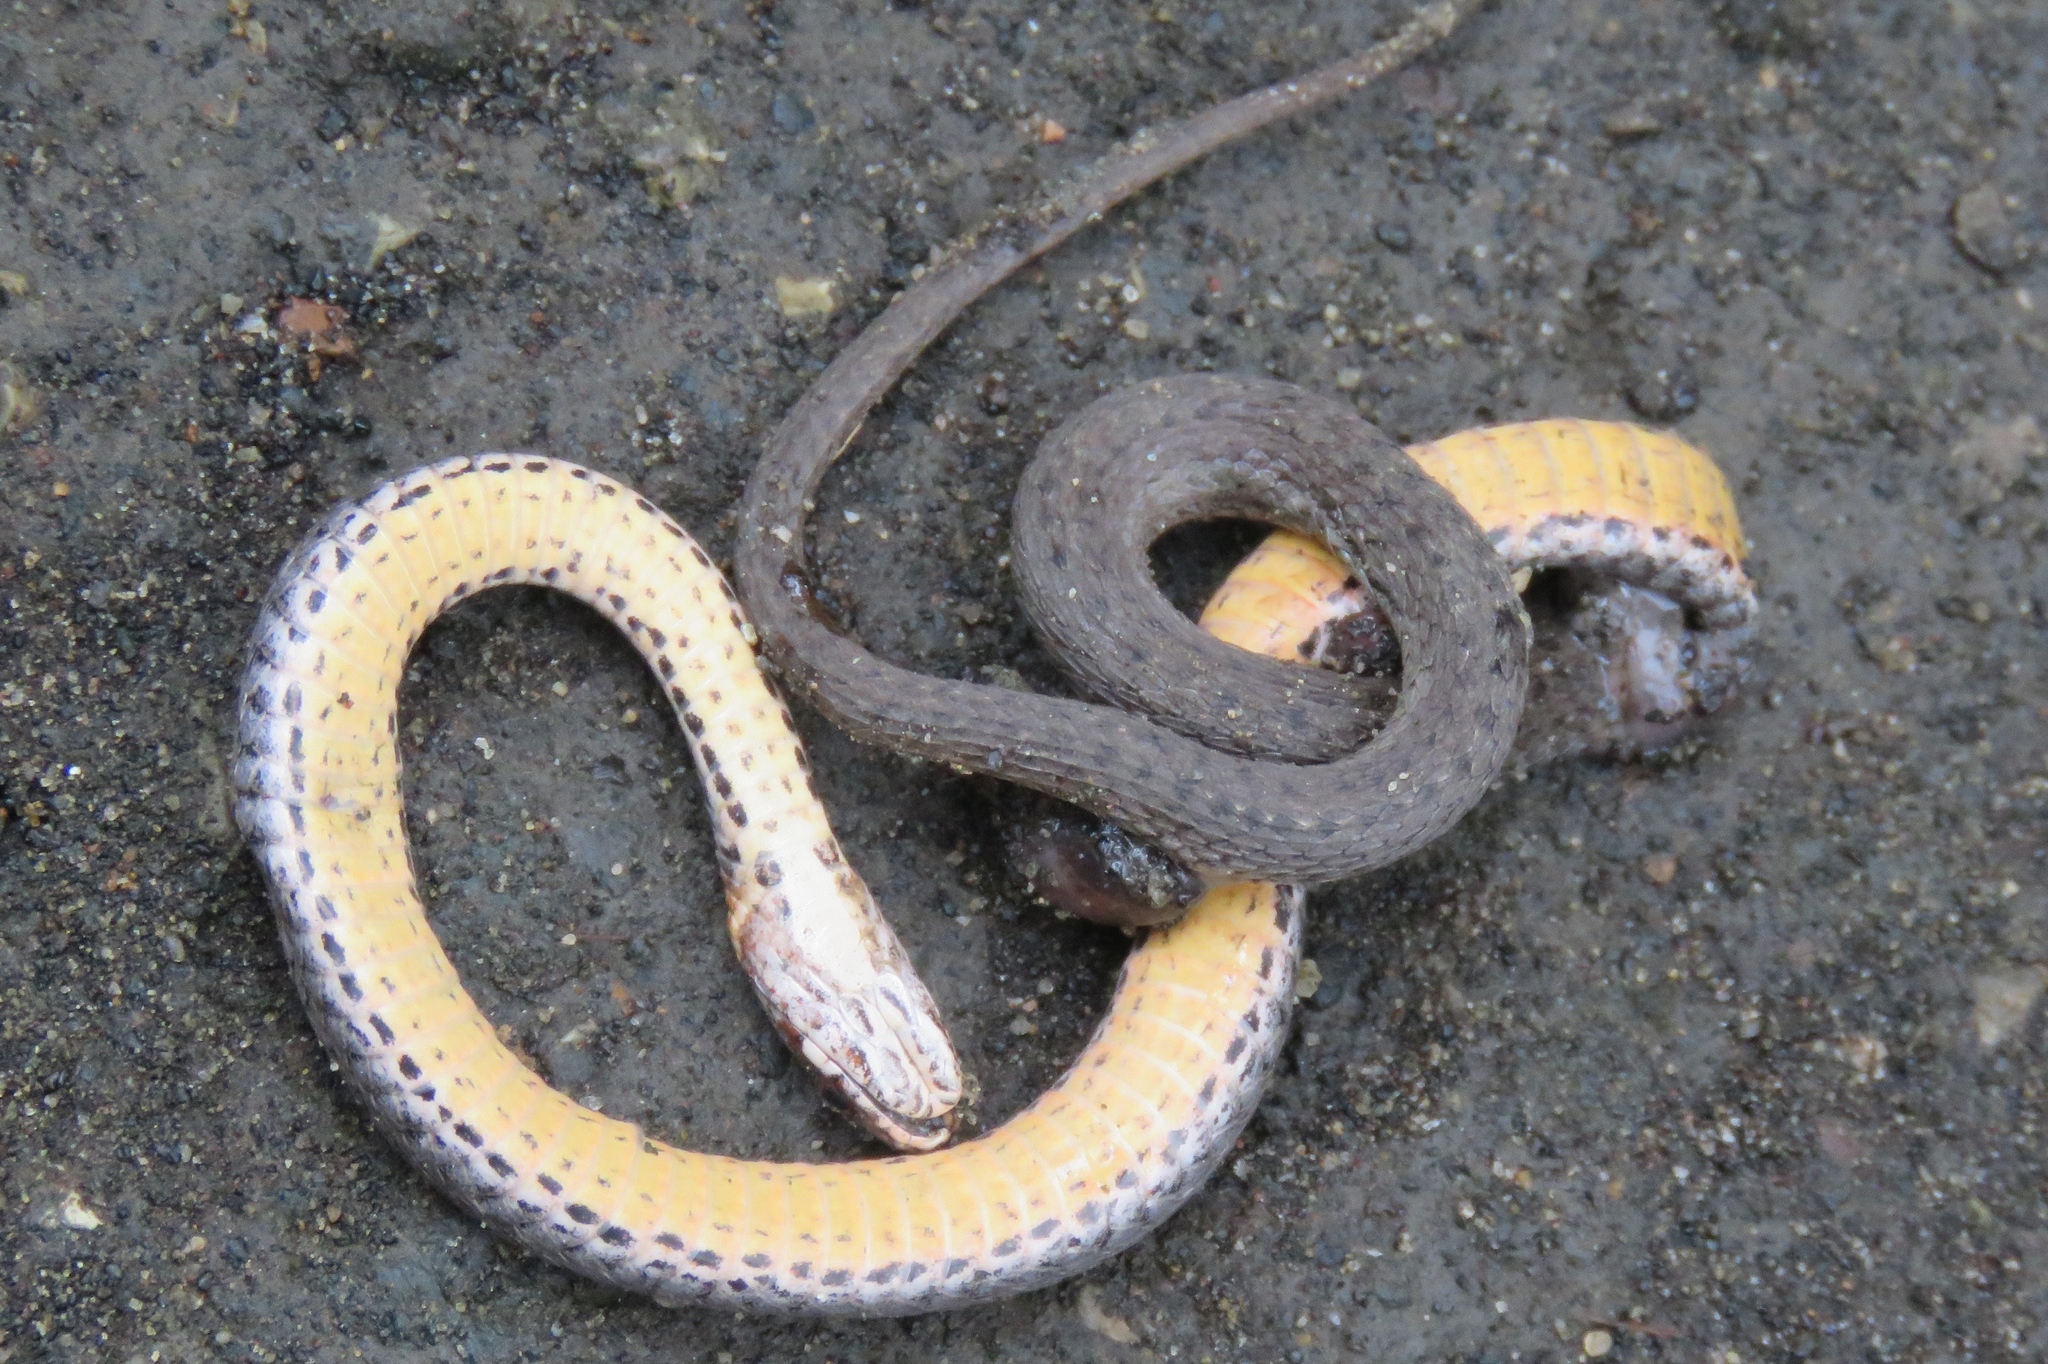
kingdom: Animalia
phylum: Chordata
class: Squamata
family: Colubridae
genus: Storeria
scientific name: Storeria occipitomaculata
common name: Redbelly snake
